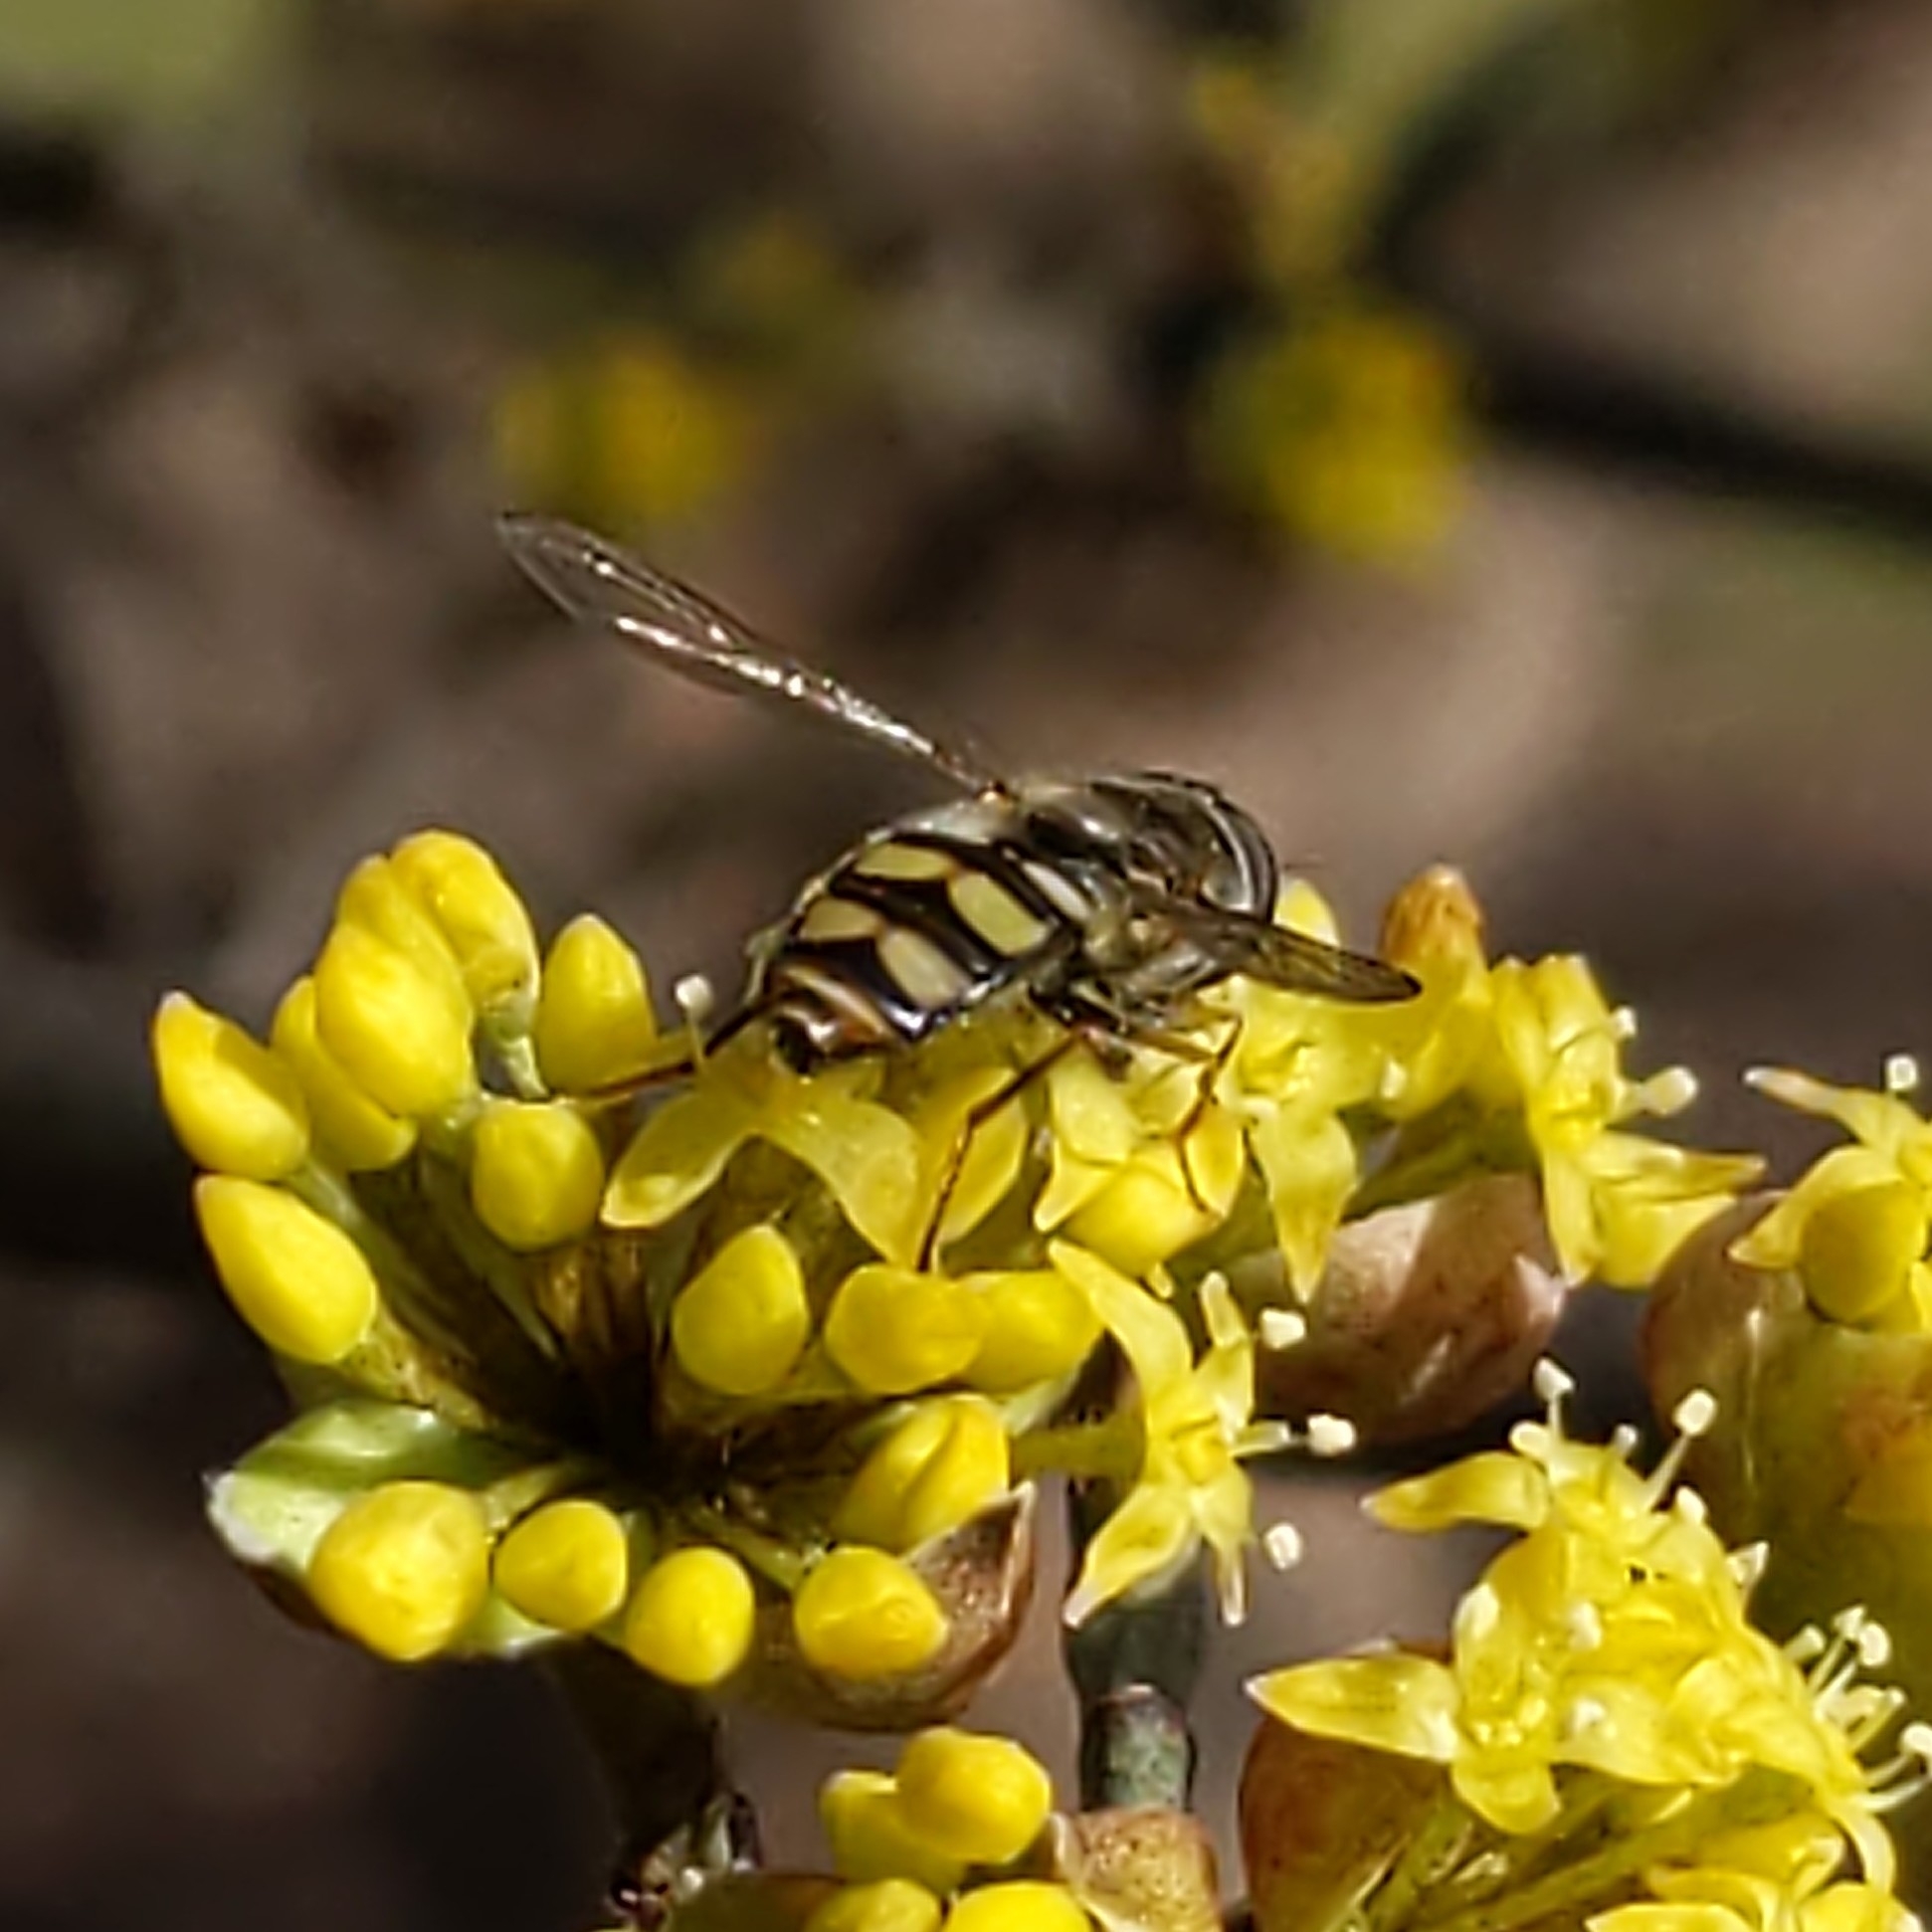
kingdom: Animalia
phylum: Arthropoda
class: Insecta
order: Diptera
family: Syrphidae
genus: Eupeodes
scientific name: Eupeodes
